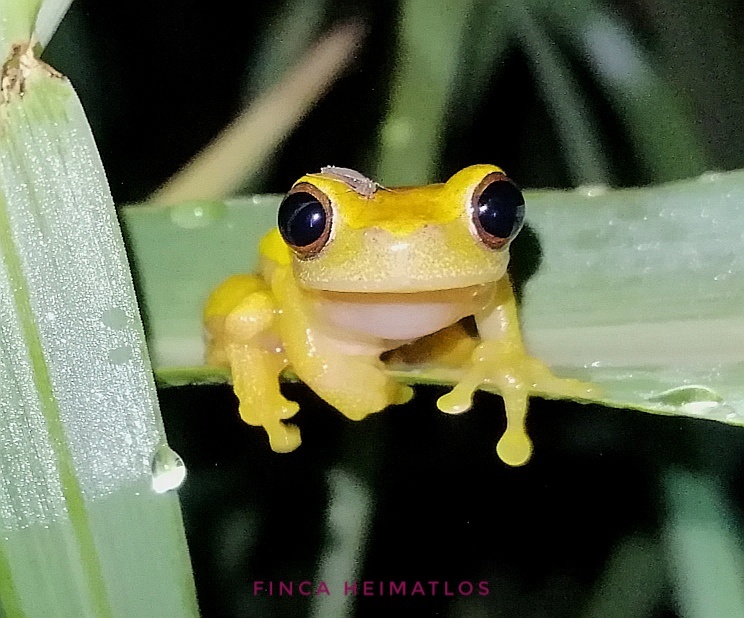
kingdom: Animalia
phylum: Chordata
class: Amphibia
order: Anura
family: Hylidae
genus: Dendropsophus
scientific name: Dendropsophus bifurcus
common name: Two-lined treefrog
